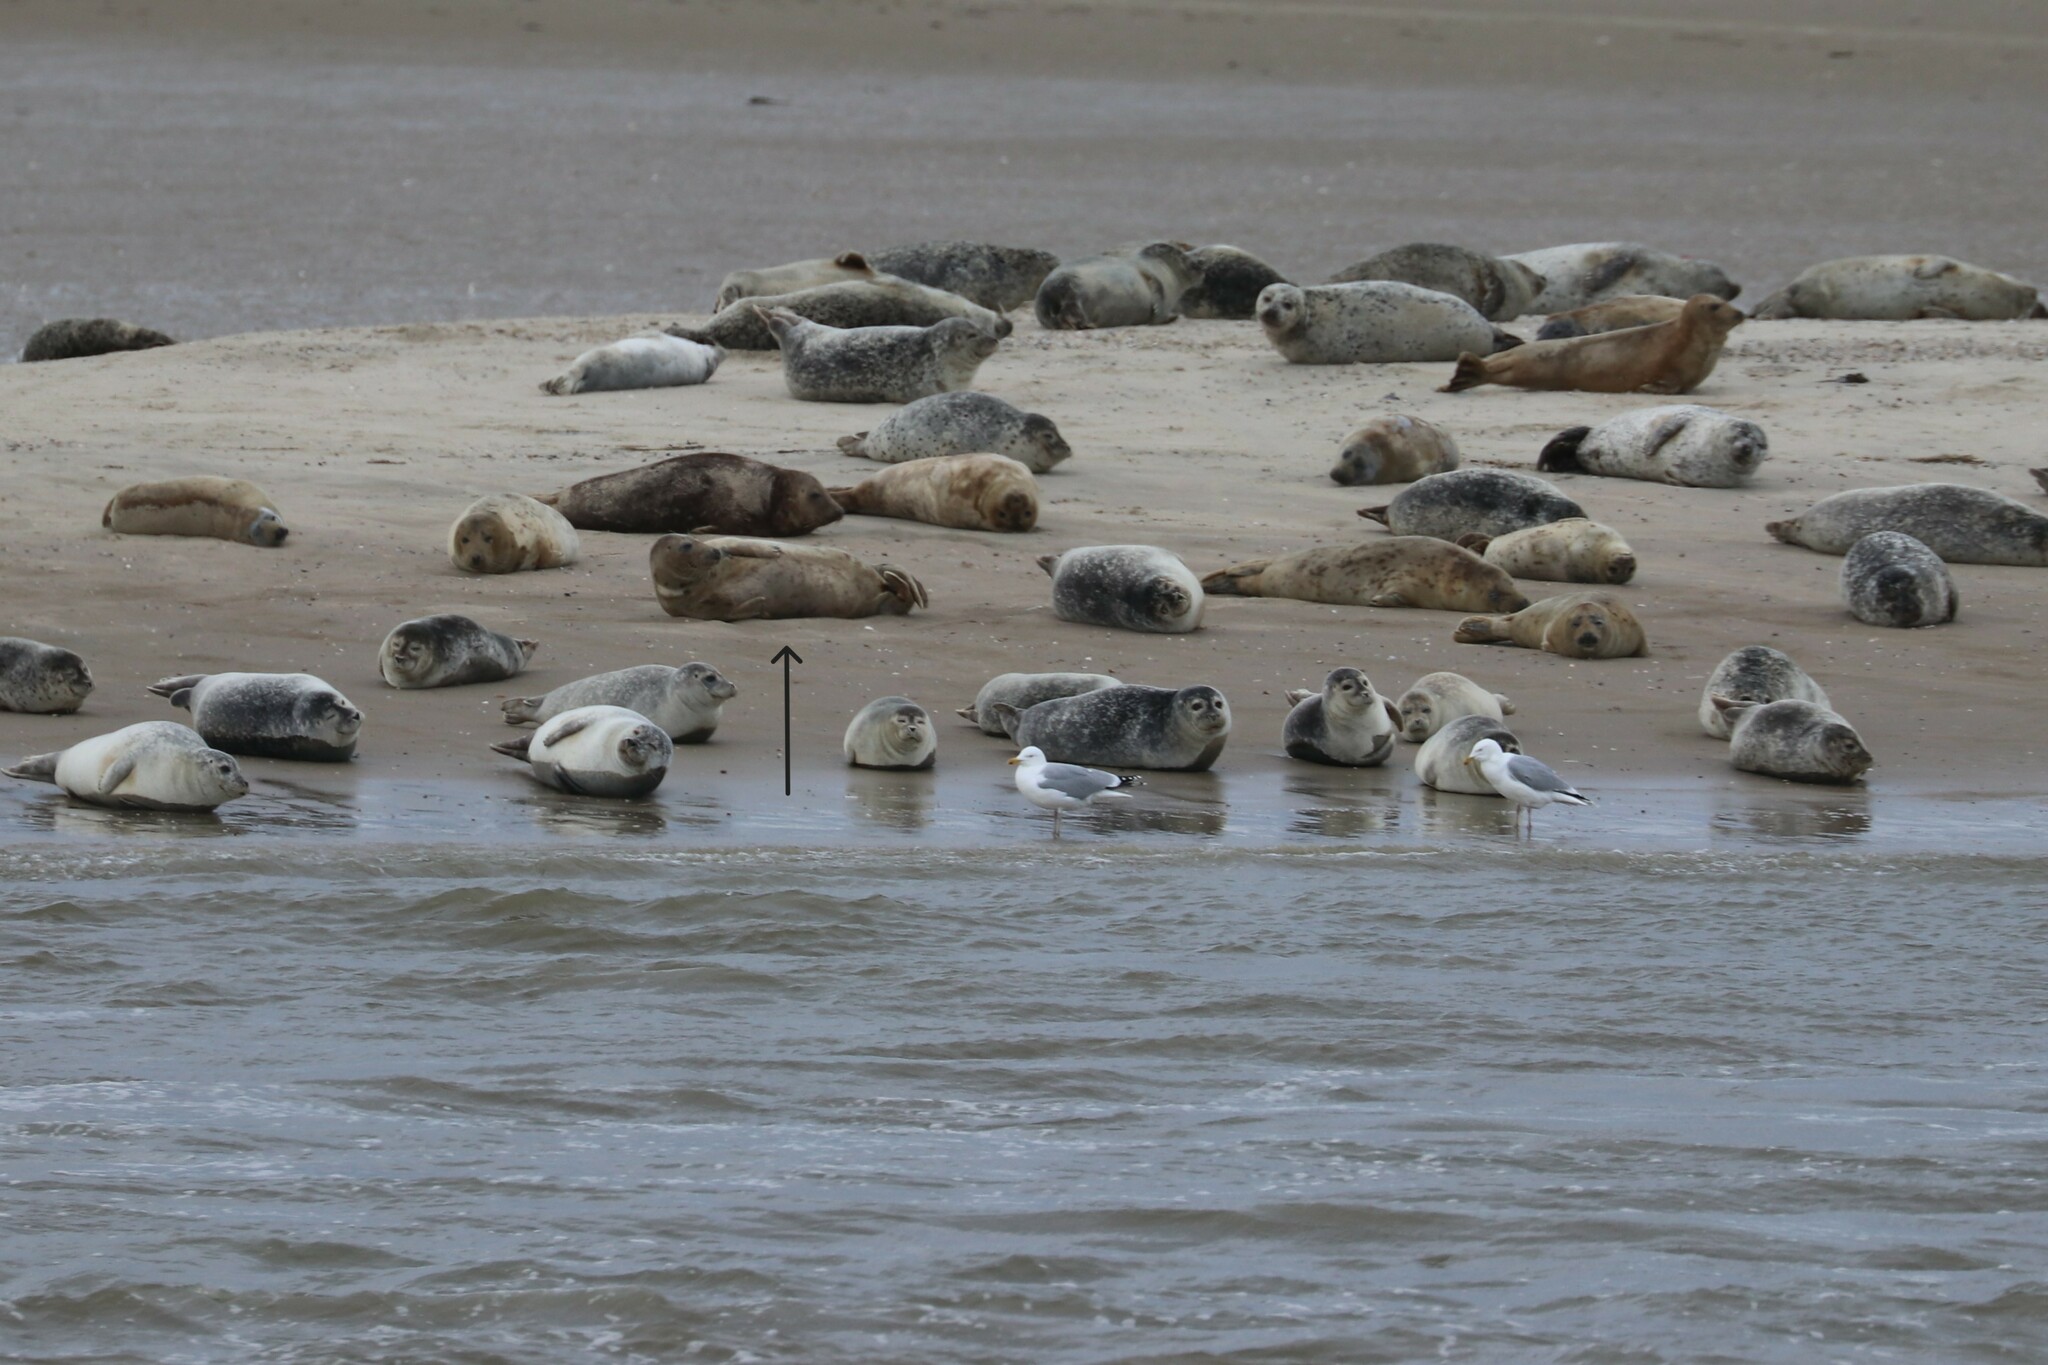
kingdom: Animalia
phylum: Chordata
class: Mammalia
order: Carnivora
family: Phocidae
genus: Phoca
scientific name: Phoca vitulina
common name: Harbor seal
